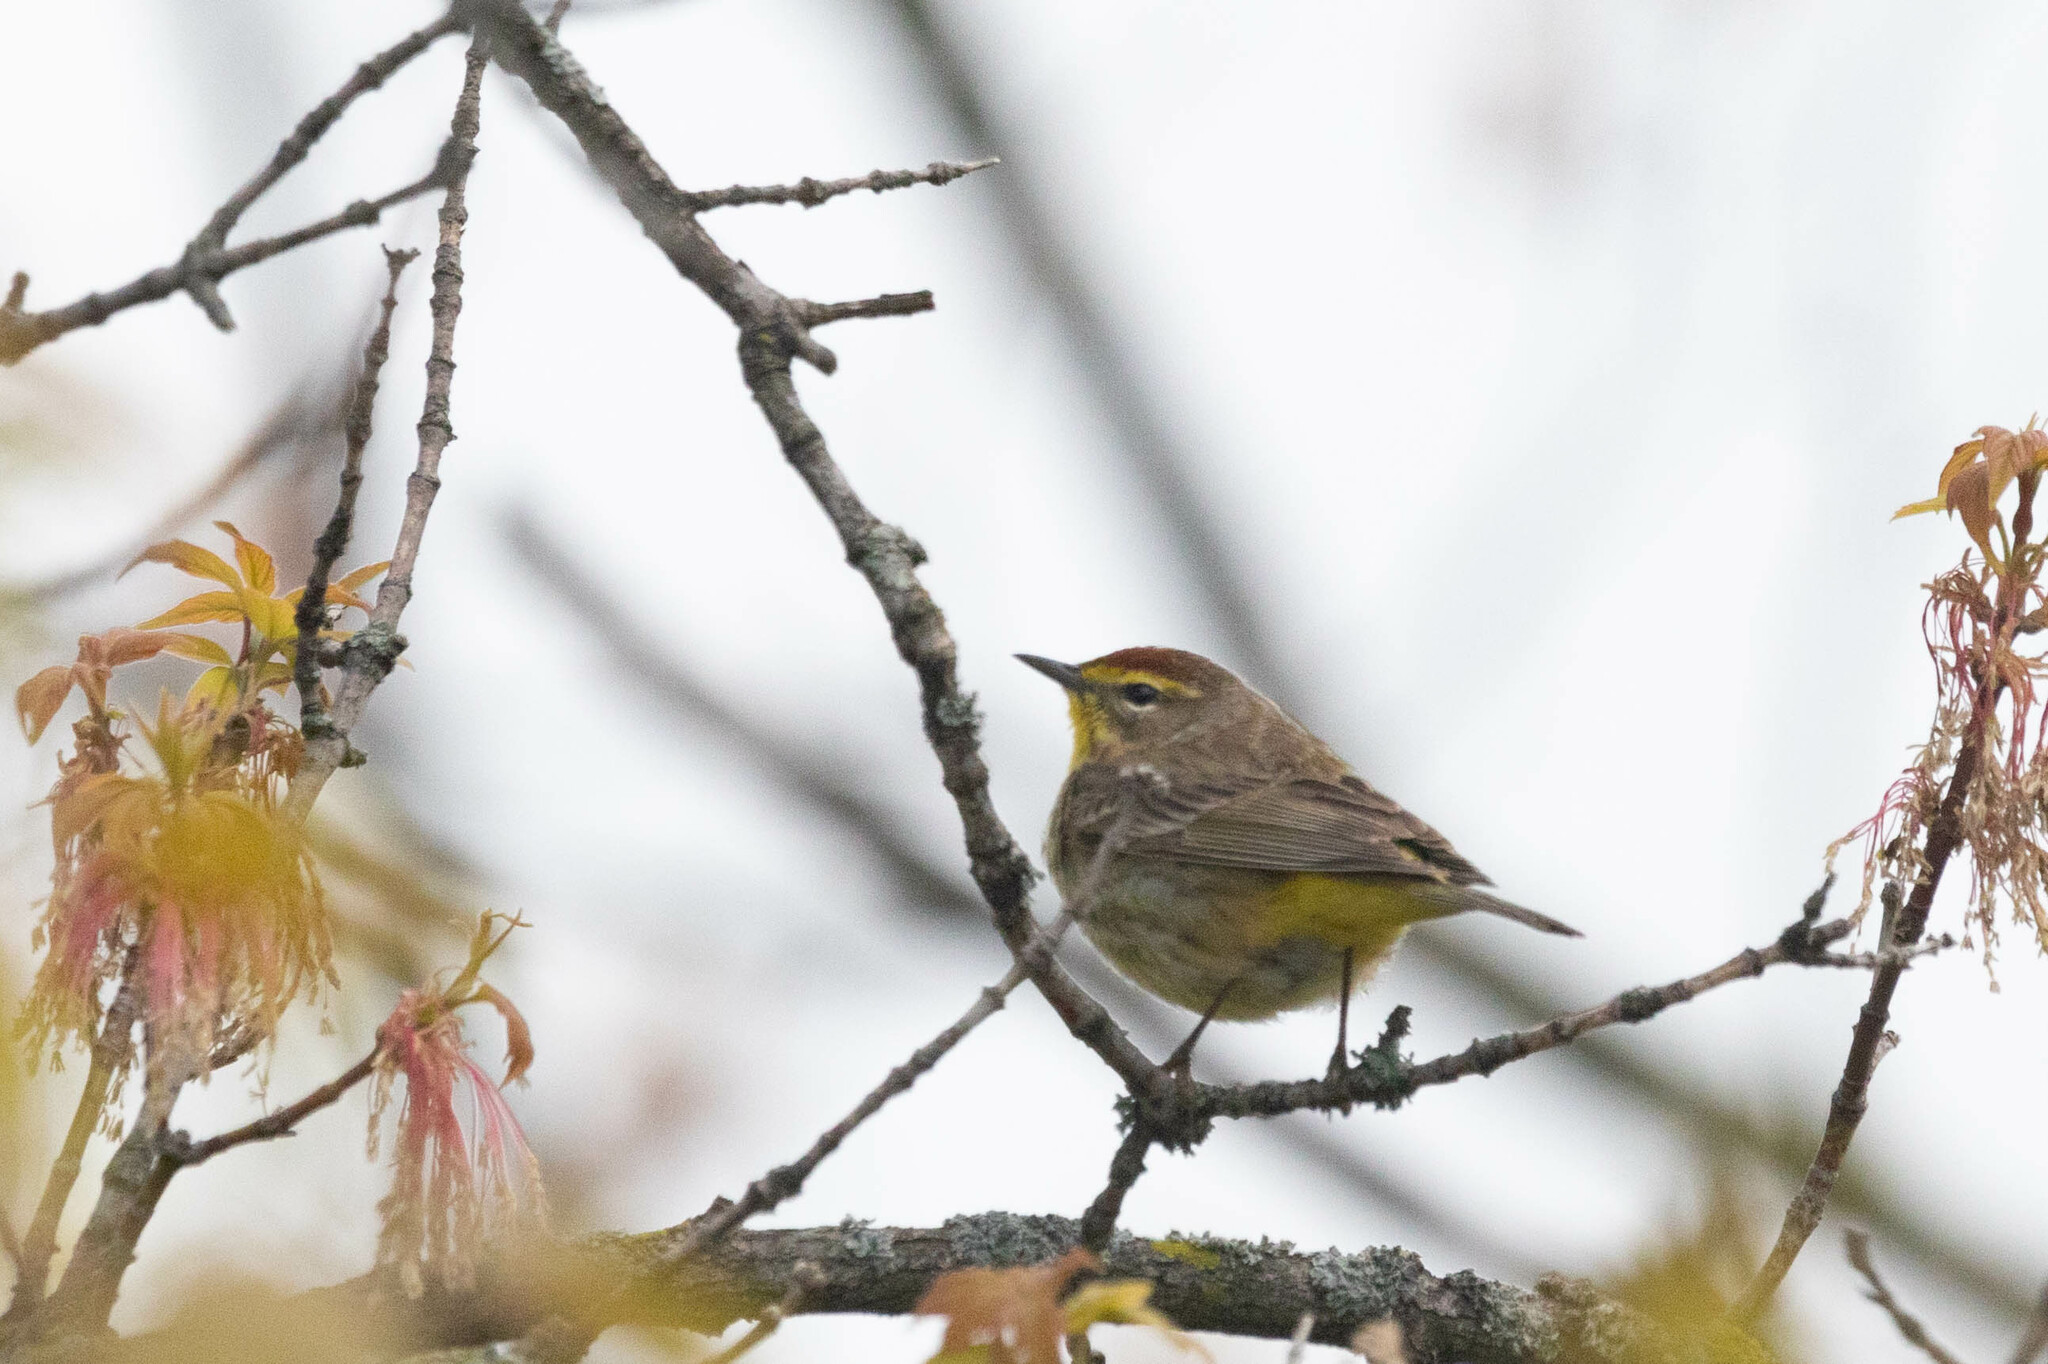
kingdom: Animalia
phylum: Chordata
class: Aves
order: Passeriformes
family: Parulidae
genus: Setophaga
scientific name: Setophaga palmarum
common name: Palm warbler
